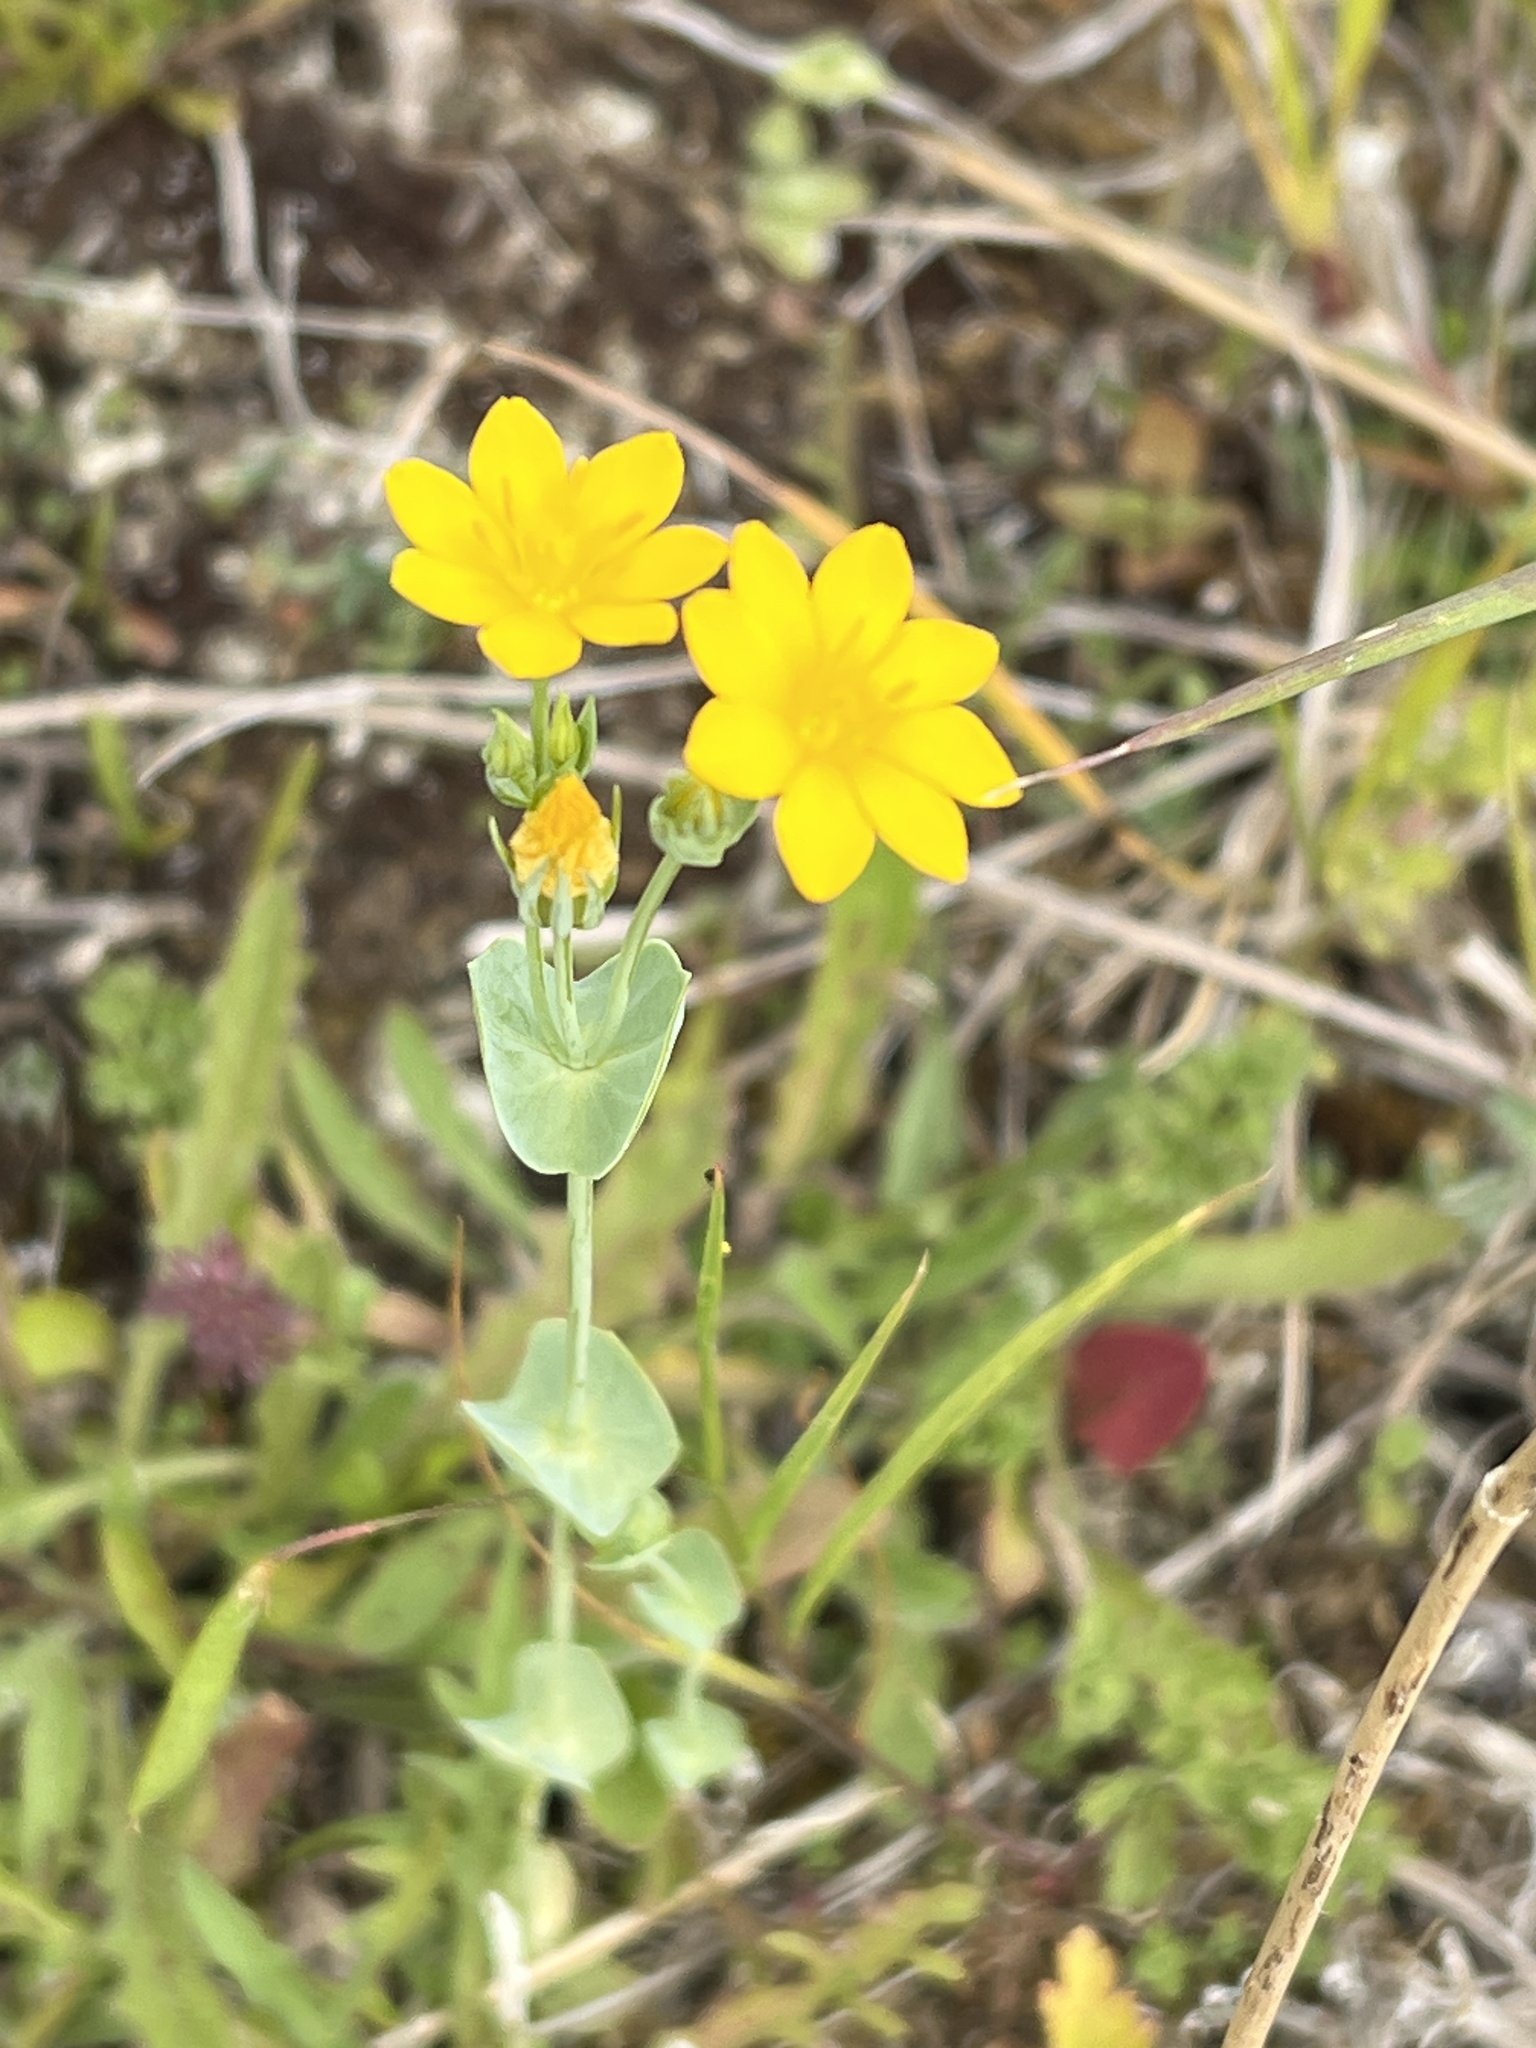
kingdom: Plantae
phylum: Tracheophyta
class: Magnoliopsida
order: Gentianales
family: Gentianaceae
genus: Blackstonia
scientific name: Blackstonia perfoliata
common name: Yellow-wort
